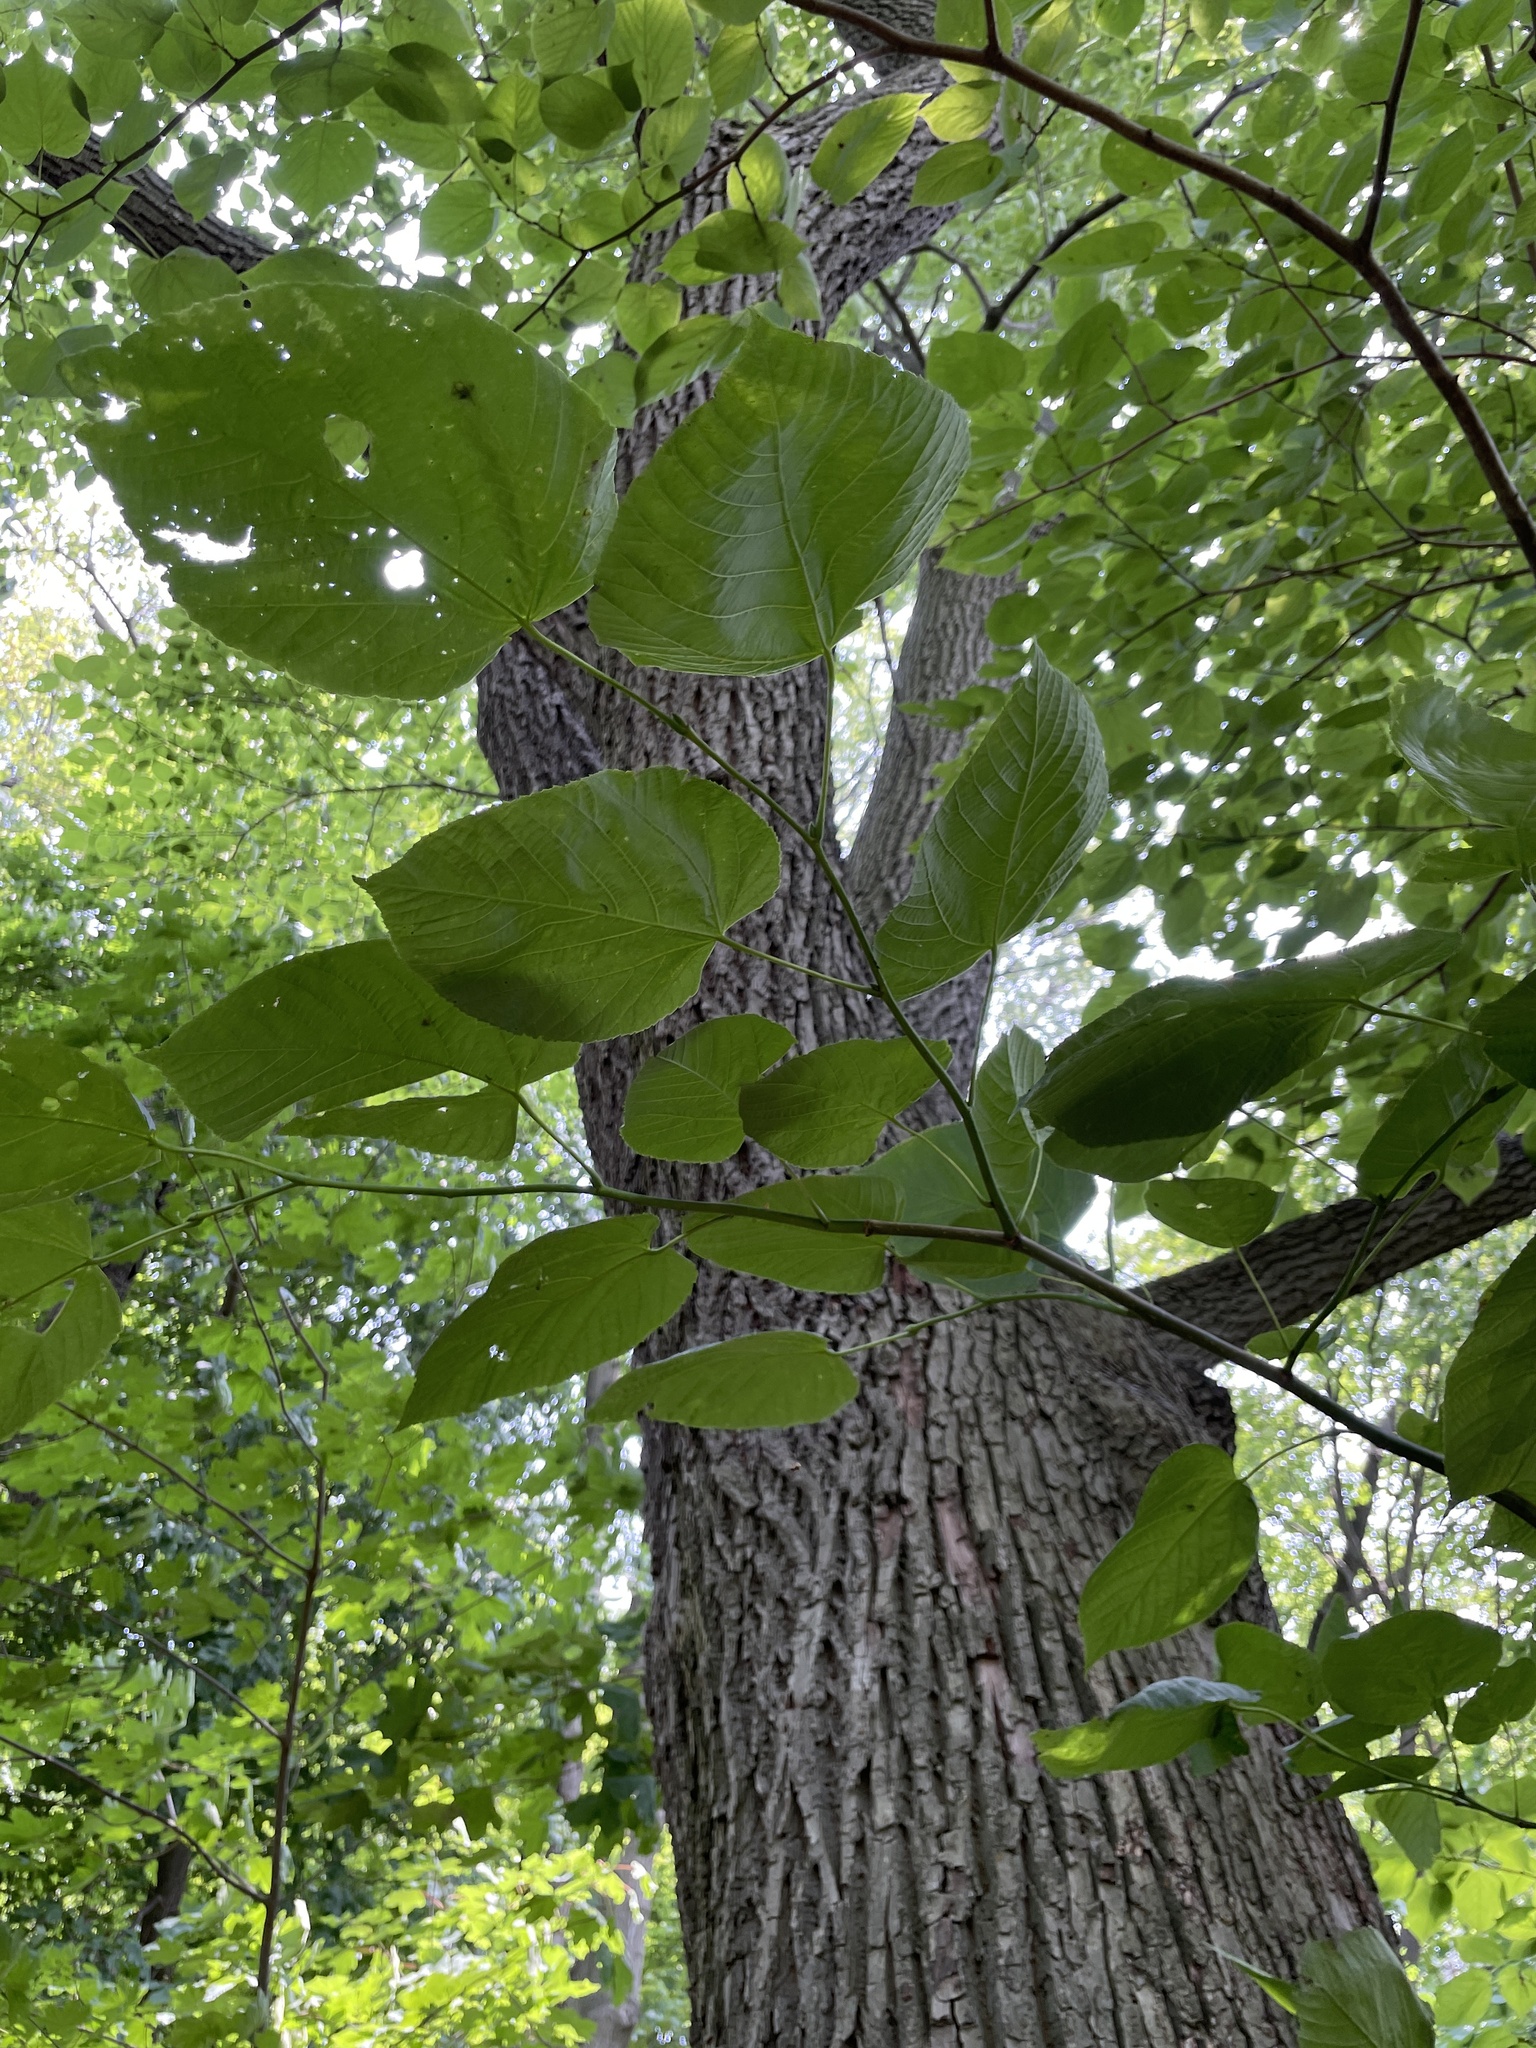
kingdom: Plantae
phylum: Tracheophyta
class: Magnoliopsida
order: Malvales
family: Malvaceae
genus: Tilia
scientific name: Tilia americana
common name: Basswood
